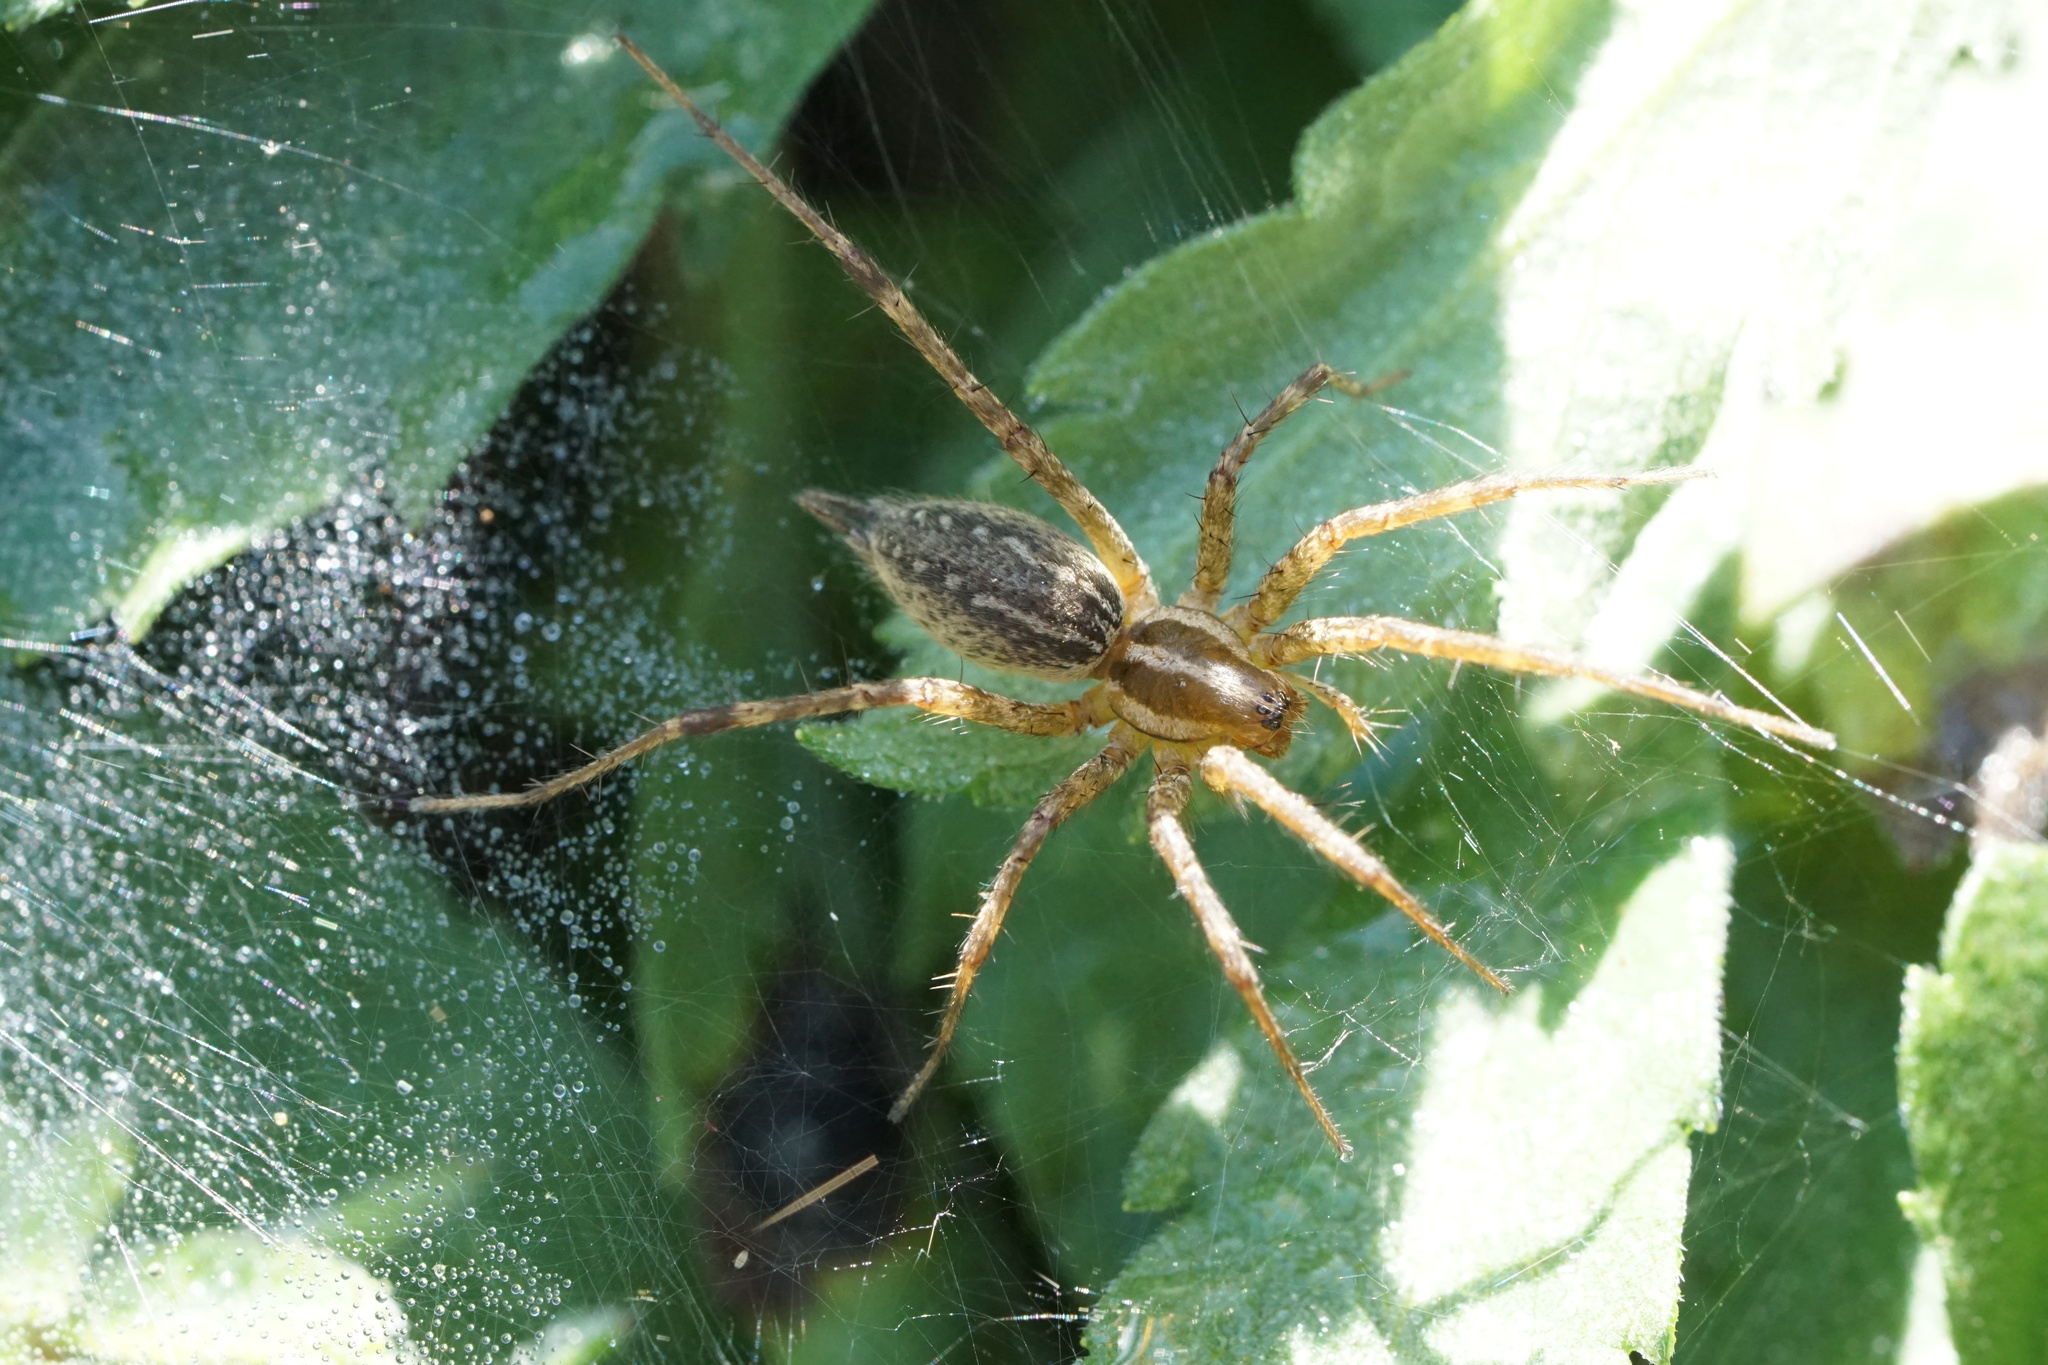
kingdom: Animalia
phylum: Arthropoda
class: Arachnida
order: Araneae
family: Agelenidae
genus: Agelenopsis
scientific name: Agelenopsis
